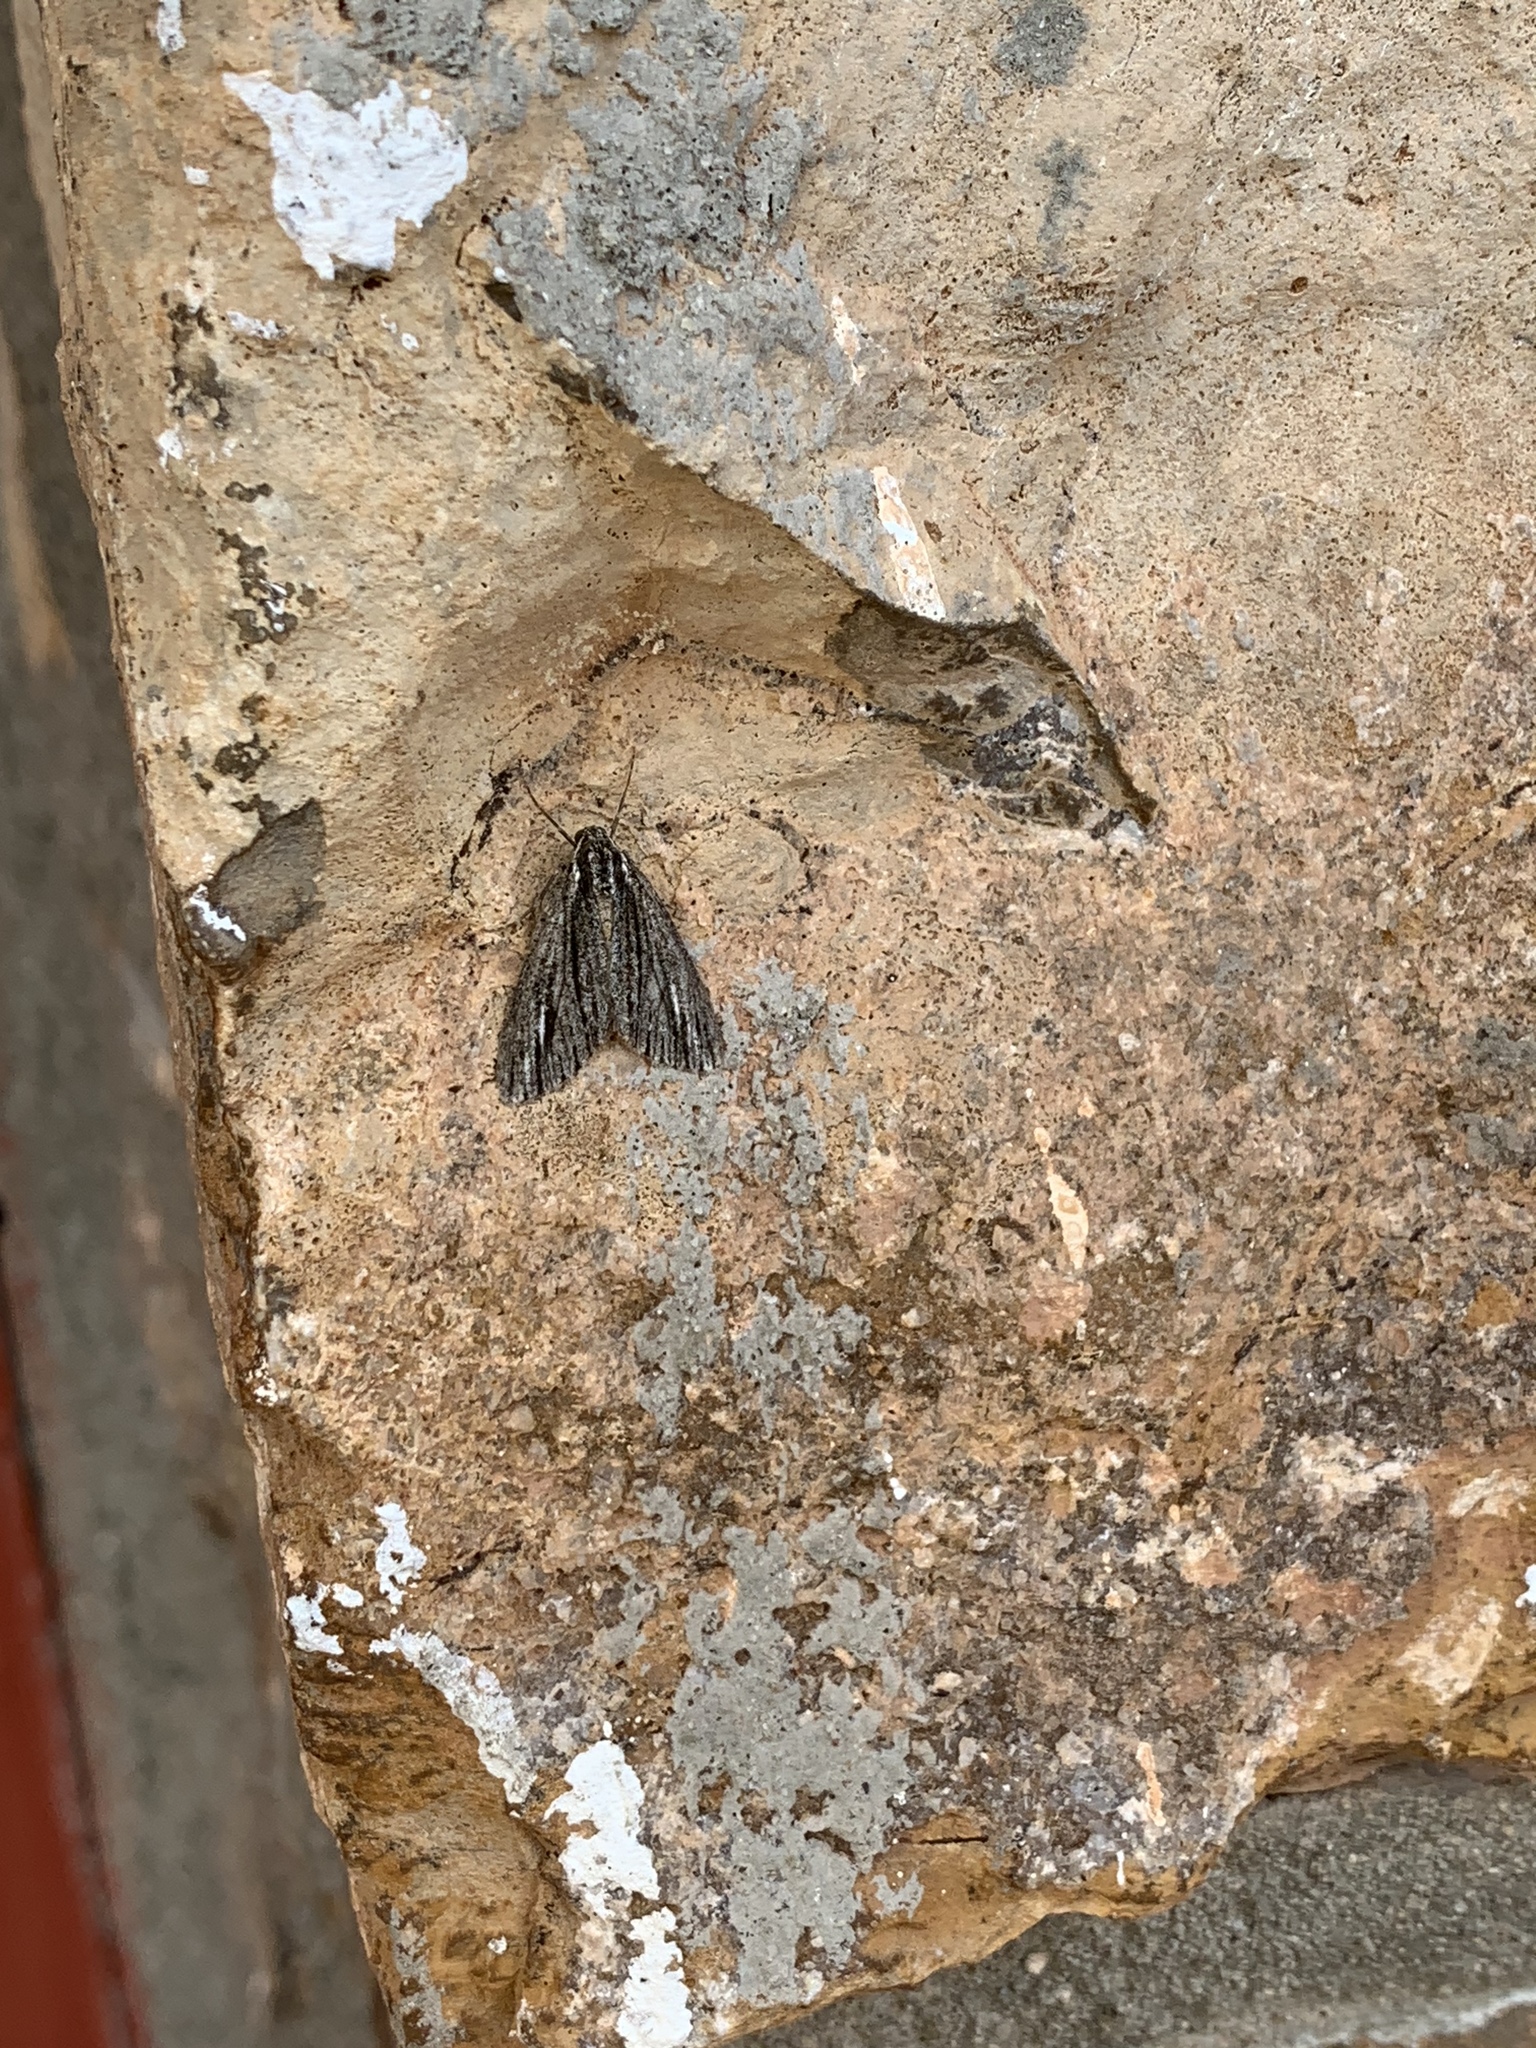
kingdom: Animalia
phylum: Arthropoda
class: Insecta
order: Lepidoptera
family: Geometridae
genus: Carphoides
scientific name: Carphoides incopriarius
